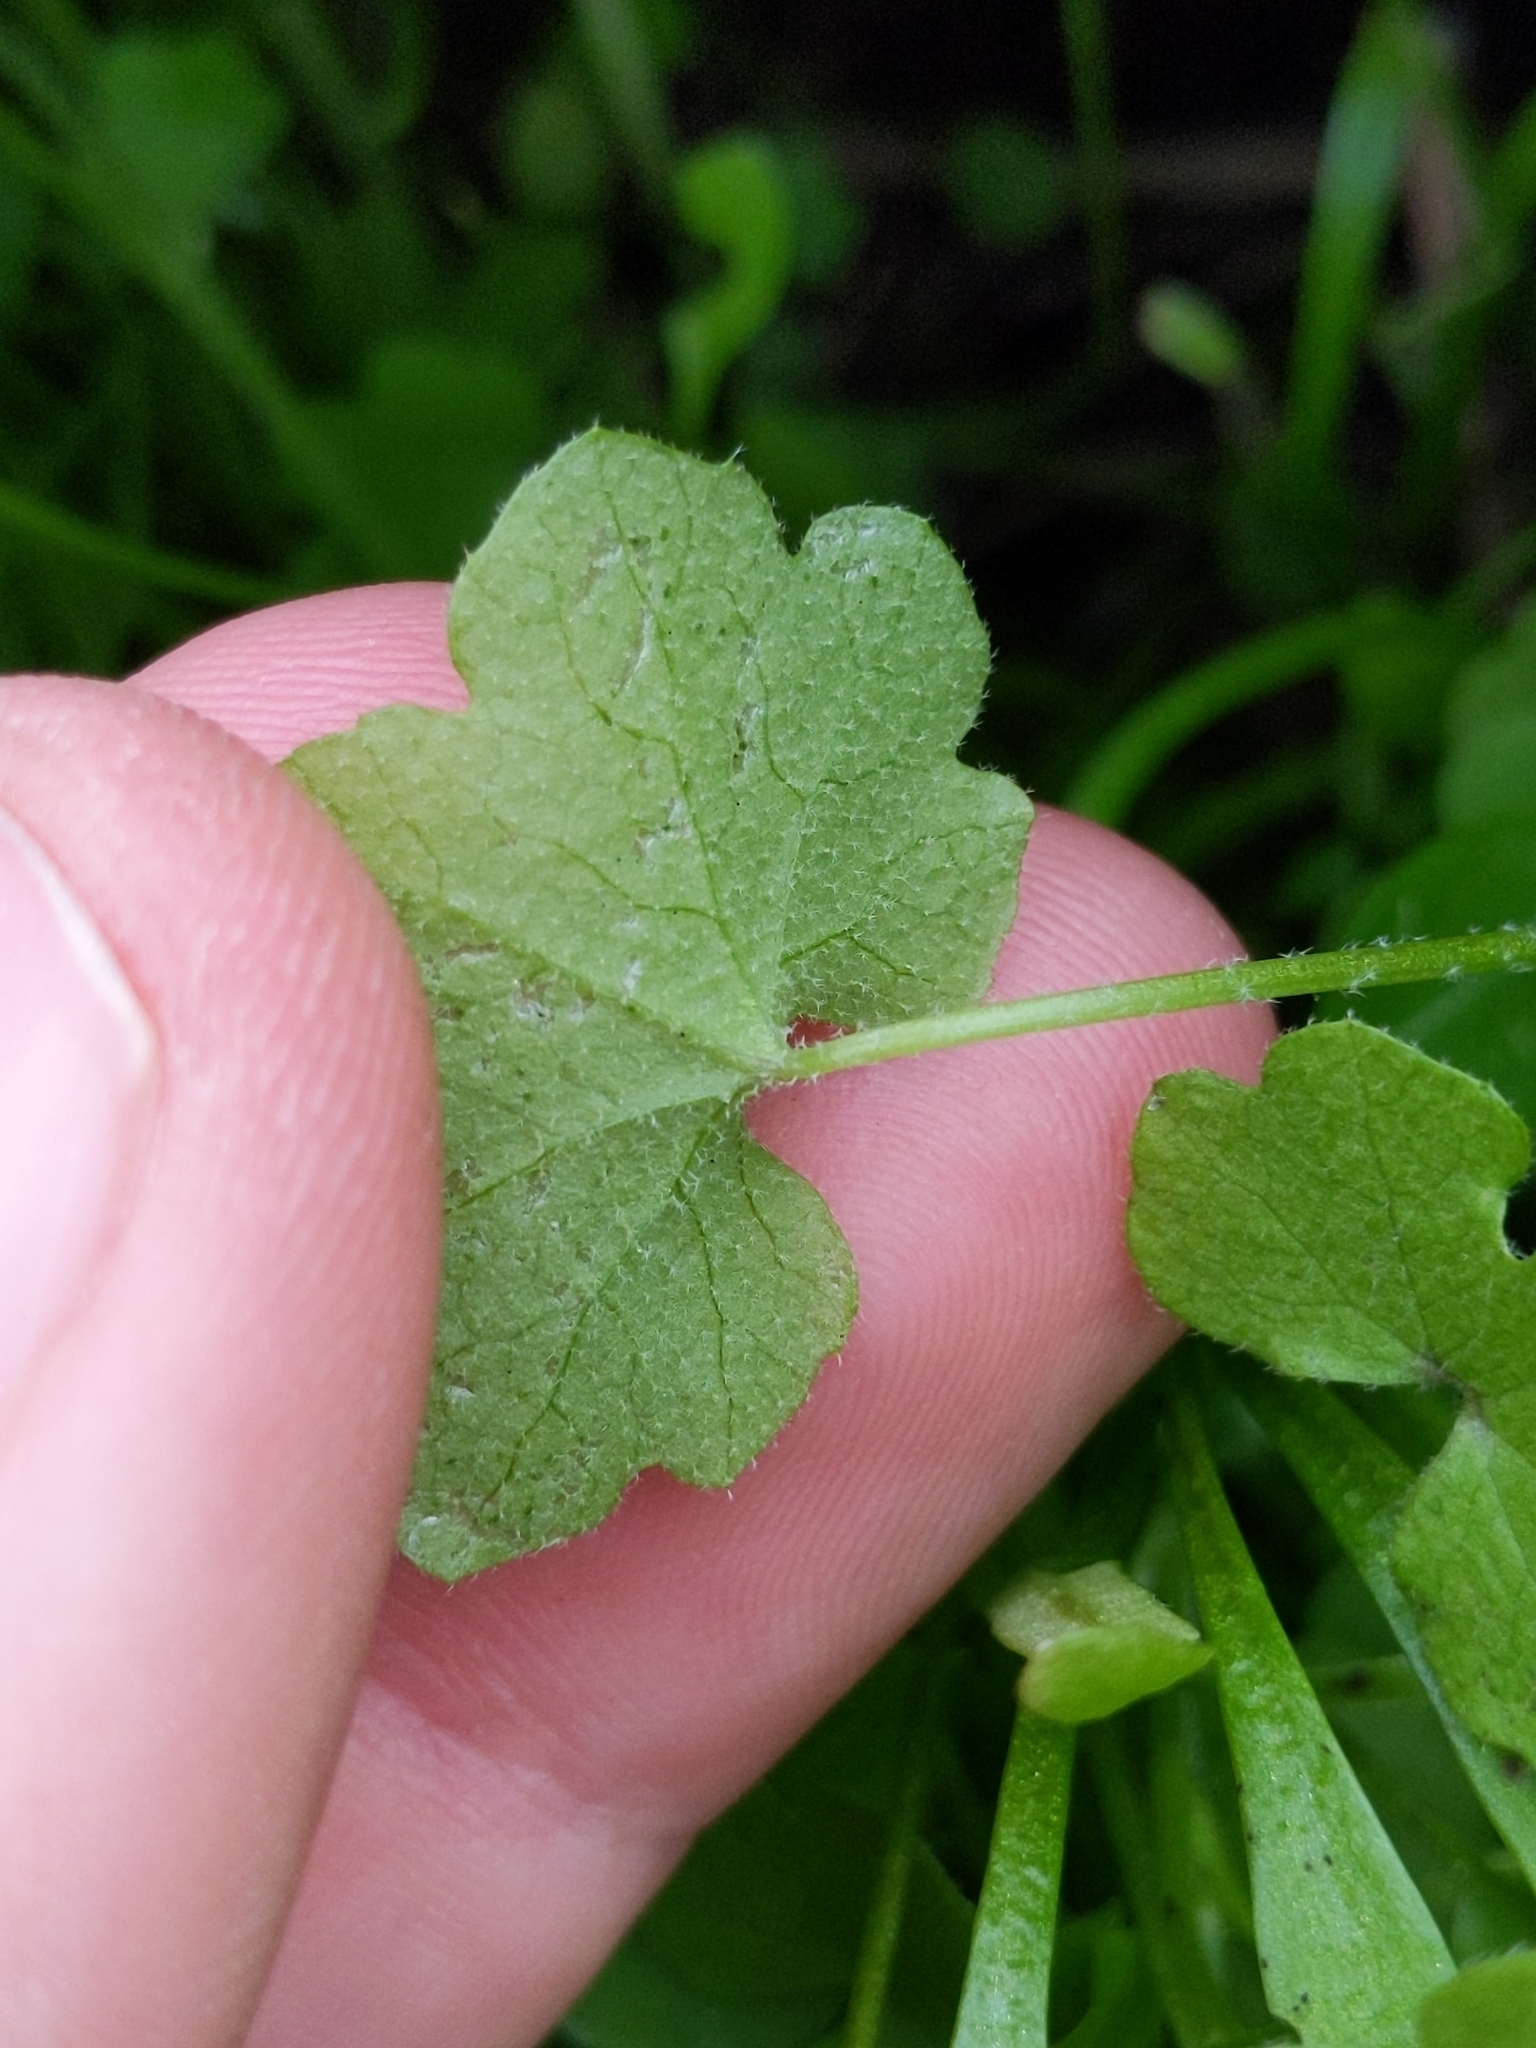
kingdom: Plantae
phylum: Tracheophyta
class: Magnoliopsida
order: Apiales
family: Apiaceae
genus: Bowlesia
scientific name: Bowlesia incana
